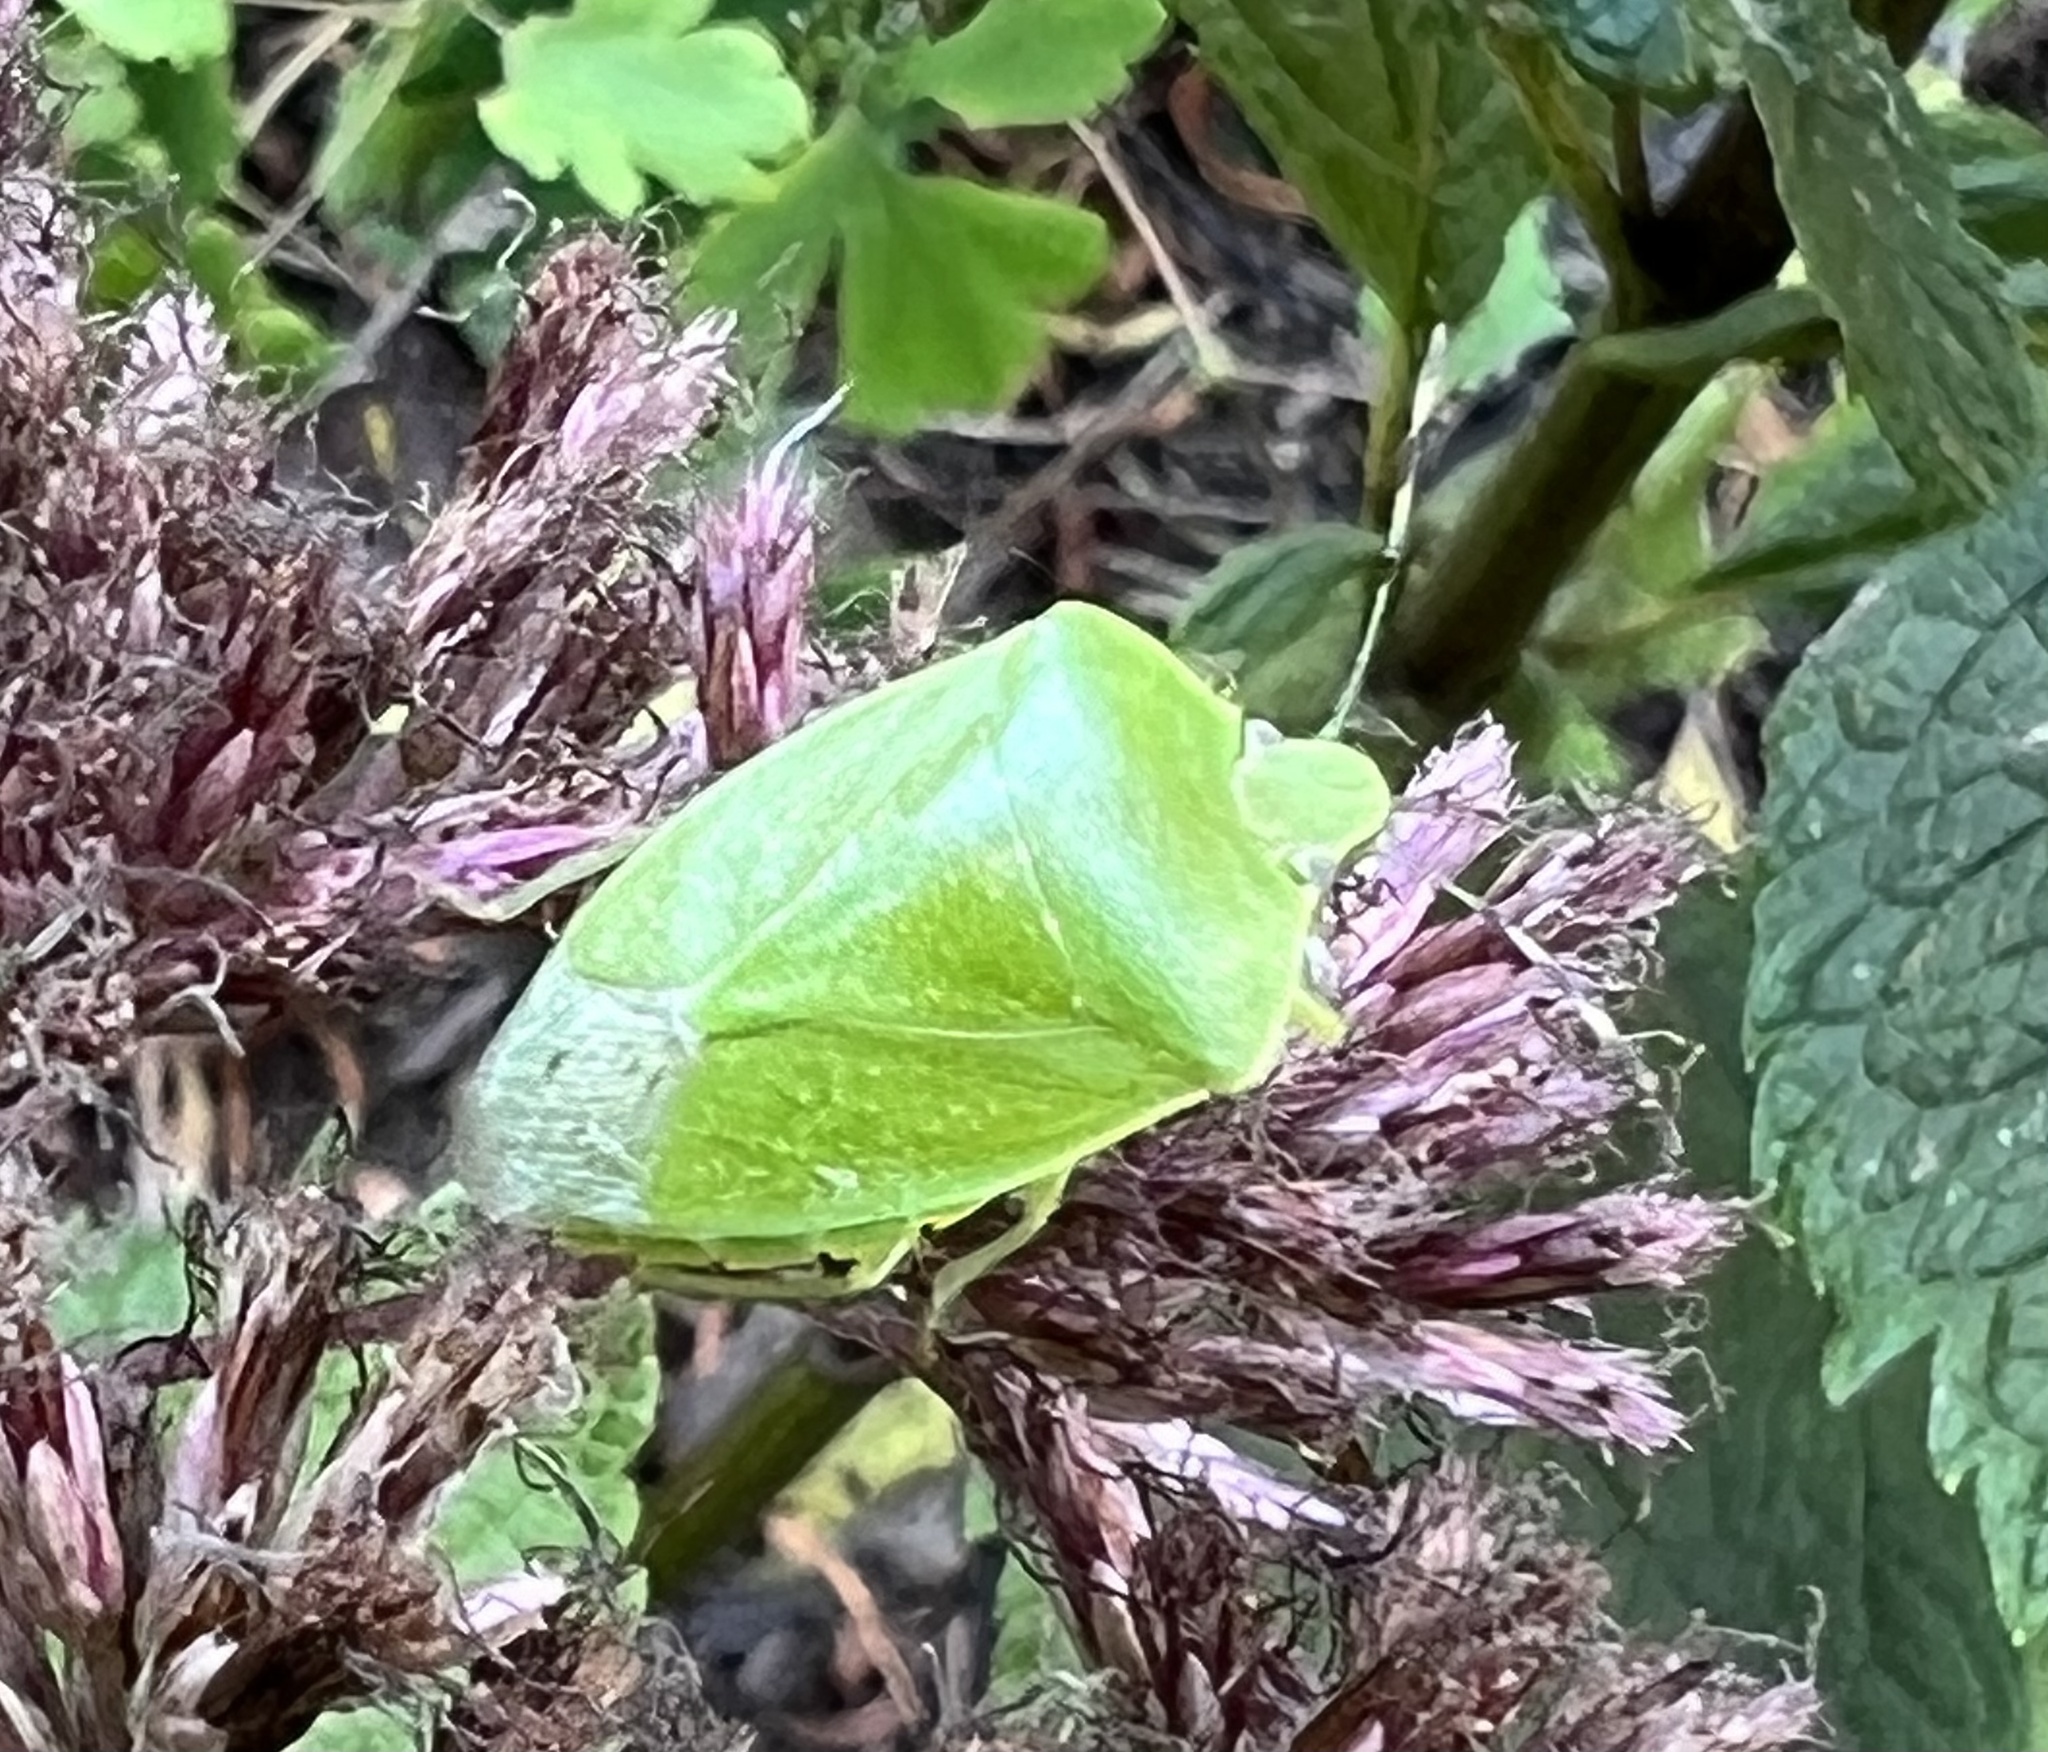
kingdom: Animalia
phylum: Arthropoda
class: Insecta
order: Hemiptera
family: Pentatomidae
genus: Chinavia
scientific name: Chinavia hilaris
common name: Green stink bug
